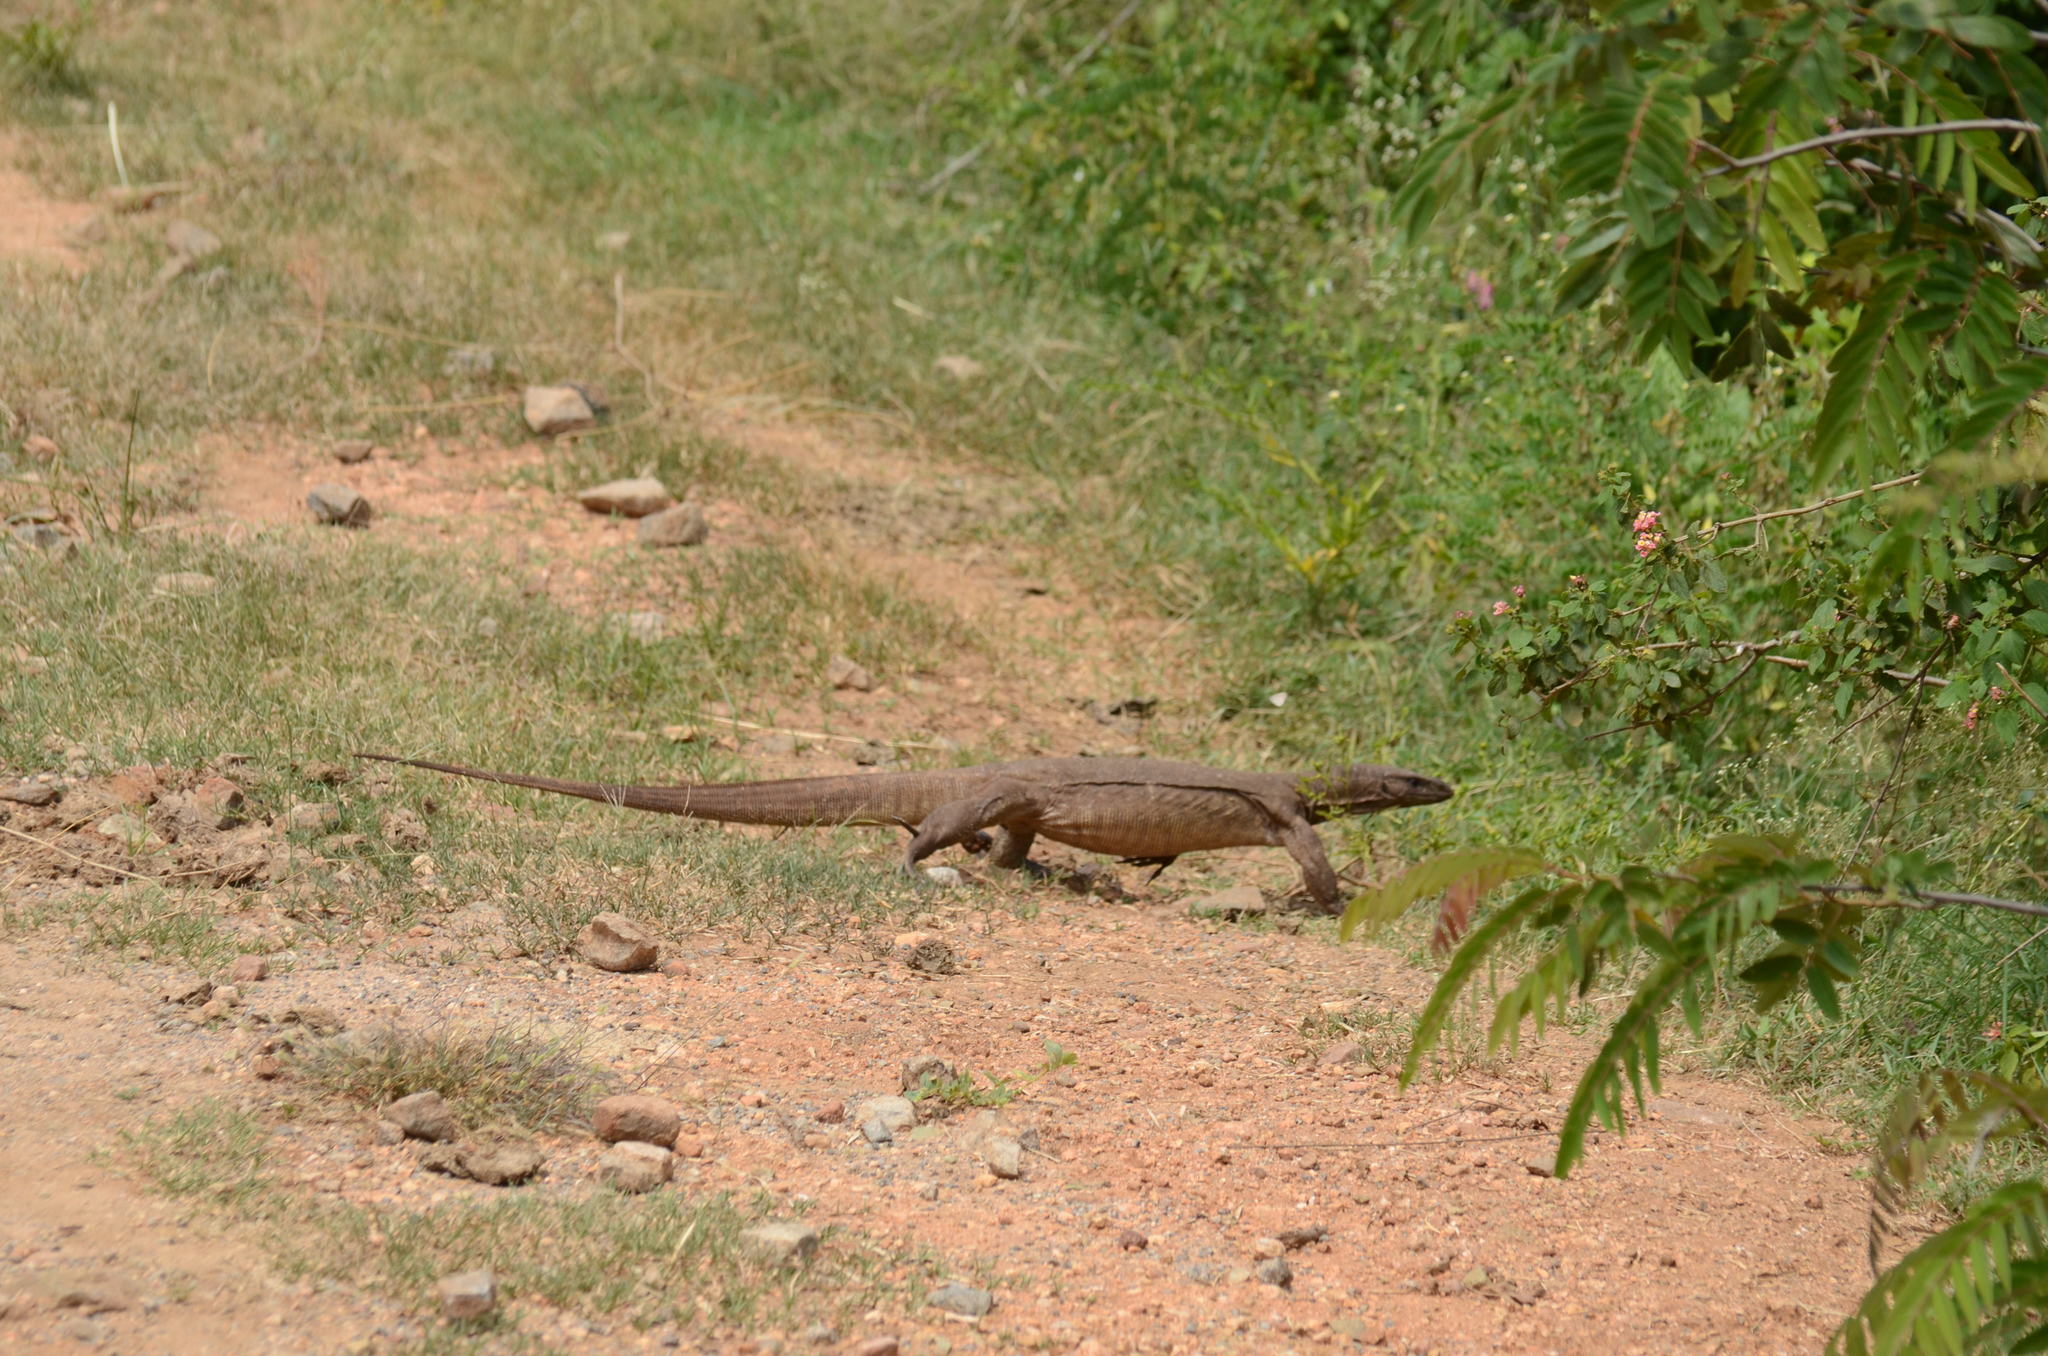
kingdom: Animalia
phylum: Chordata
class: Squamata
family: Varanidae
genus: Varanus
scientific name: Varanus bengalensis
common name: Bengal monitor
